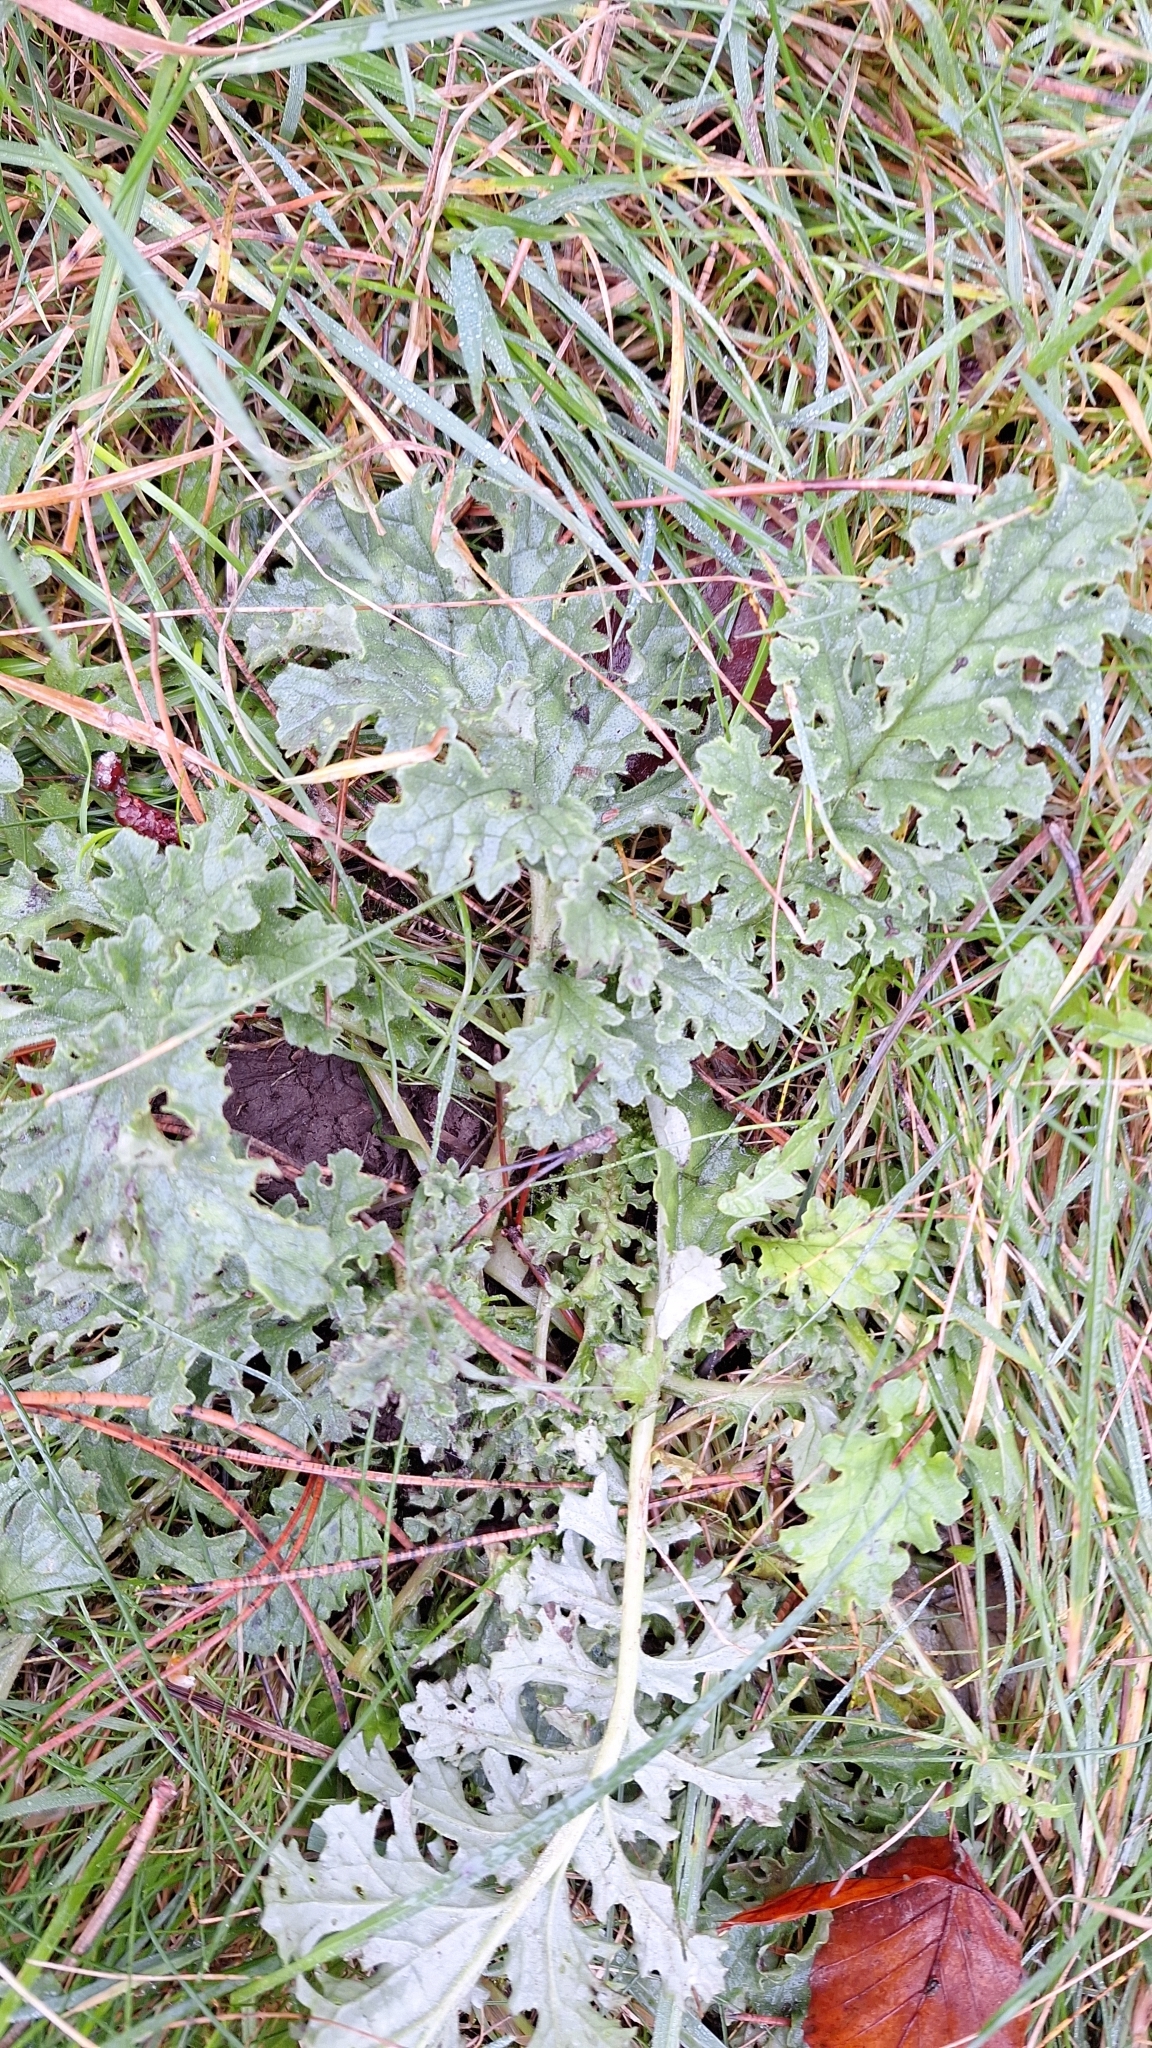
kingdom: Plantae
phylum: Tracheophyta
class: Magnoliopsida
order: Asterales
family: Asteraceae
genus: Jacobaea
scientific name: Jacobaea vulgaris
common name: Stinking willie
